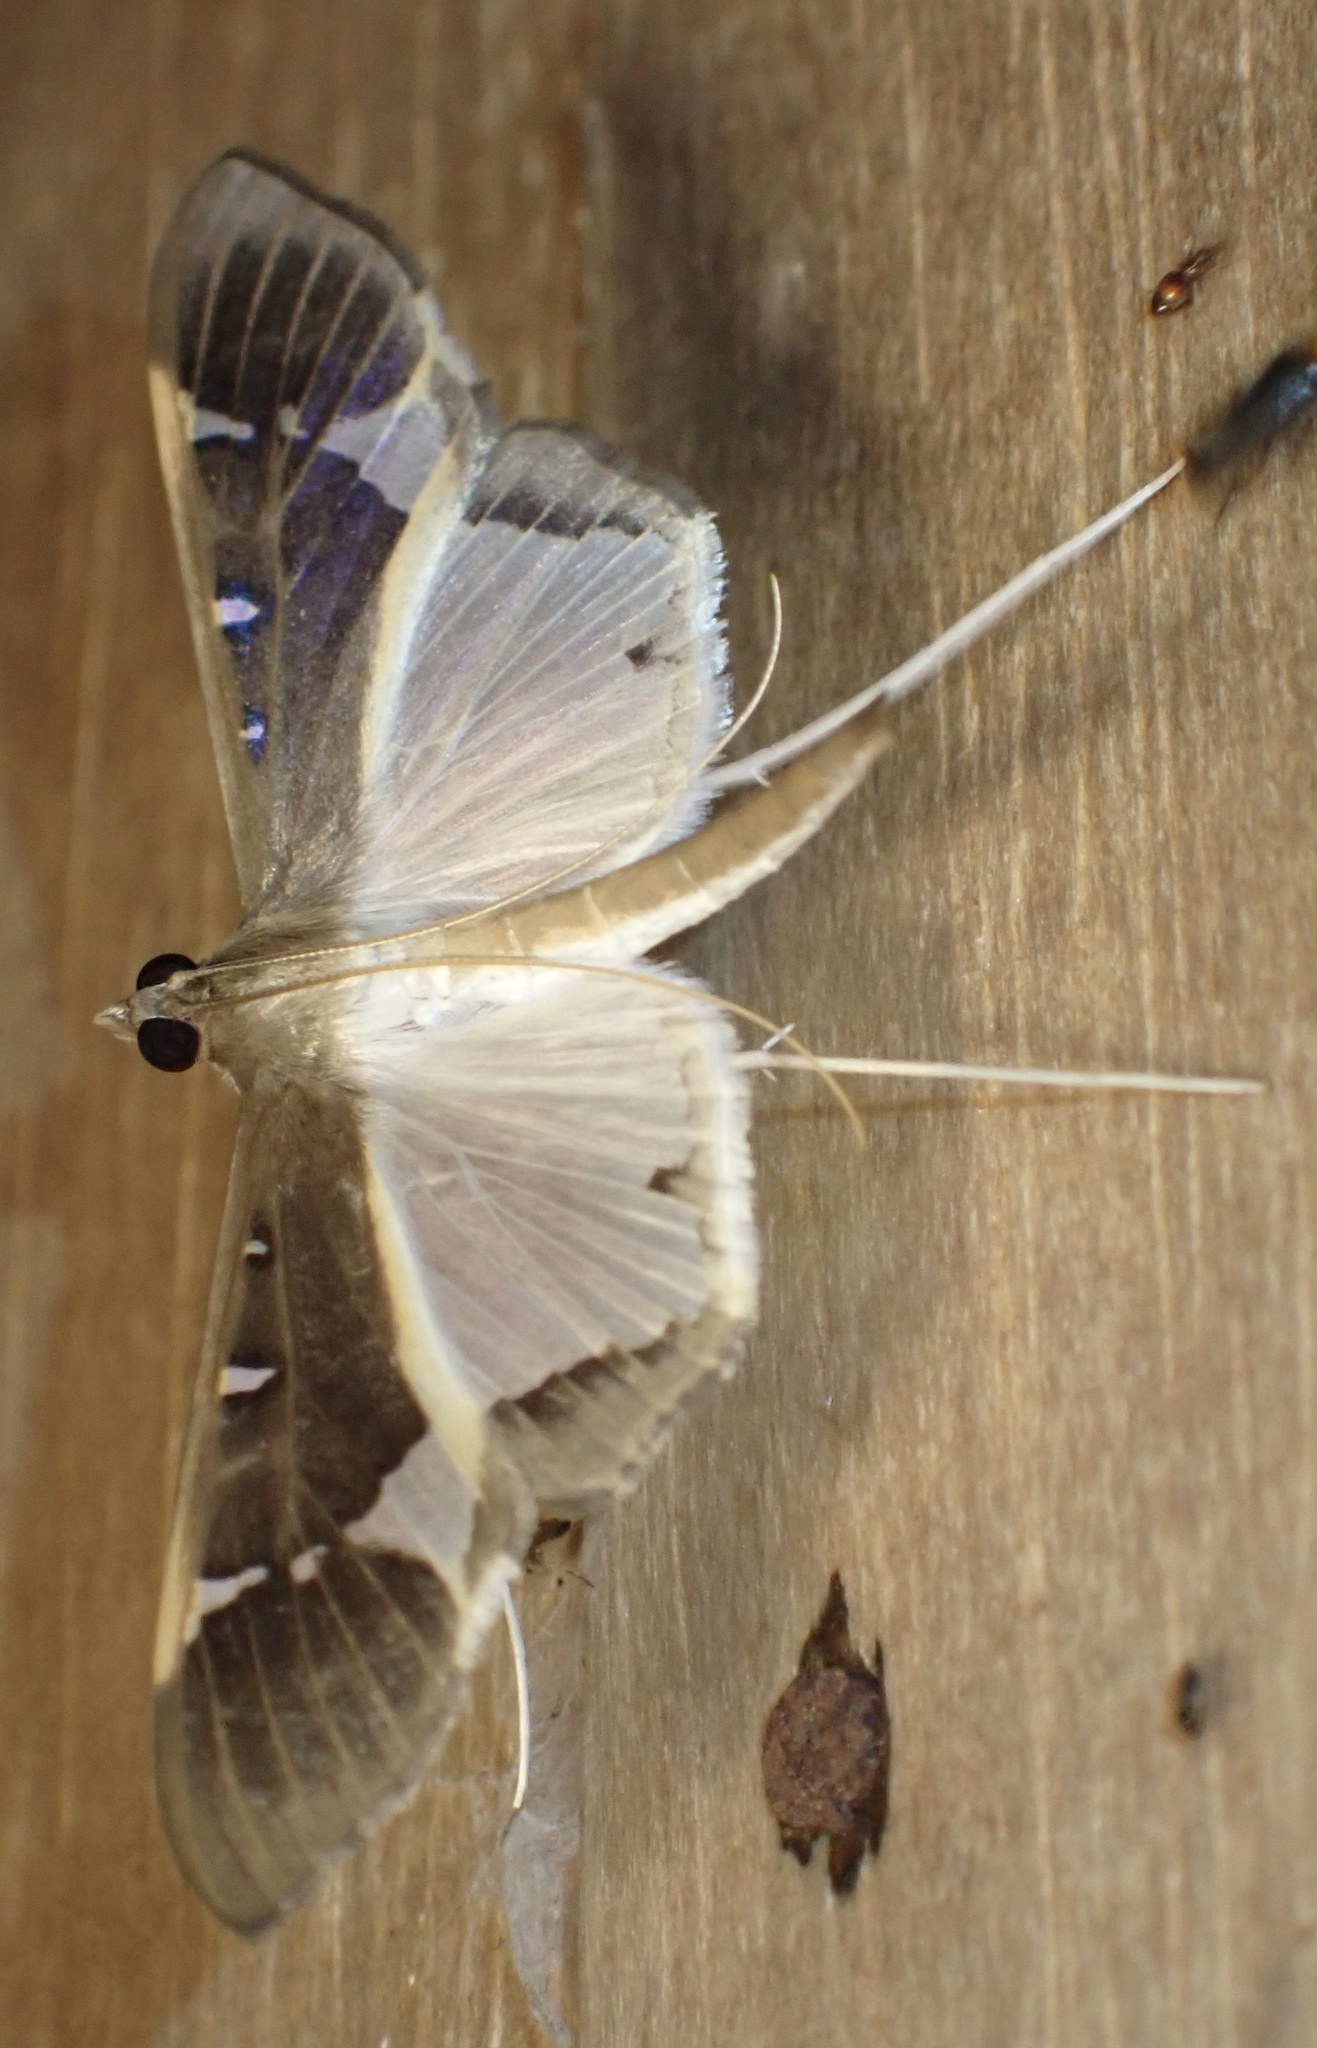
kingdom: Animalia
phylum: Arthropoda
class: Insecta
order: Lepidoptera
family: Crambidae
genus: Tipuliforma
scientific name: Tipuliforma triangulalis
